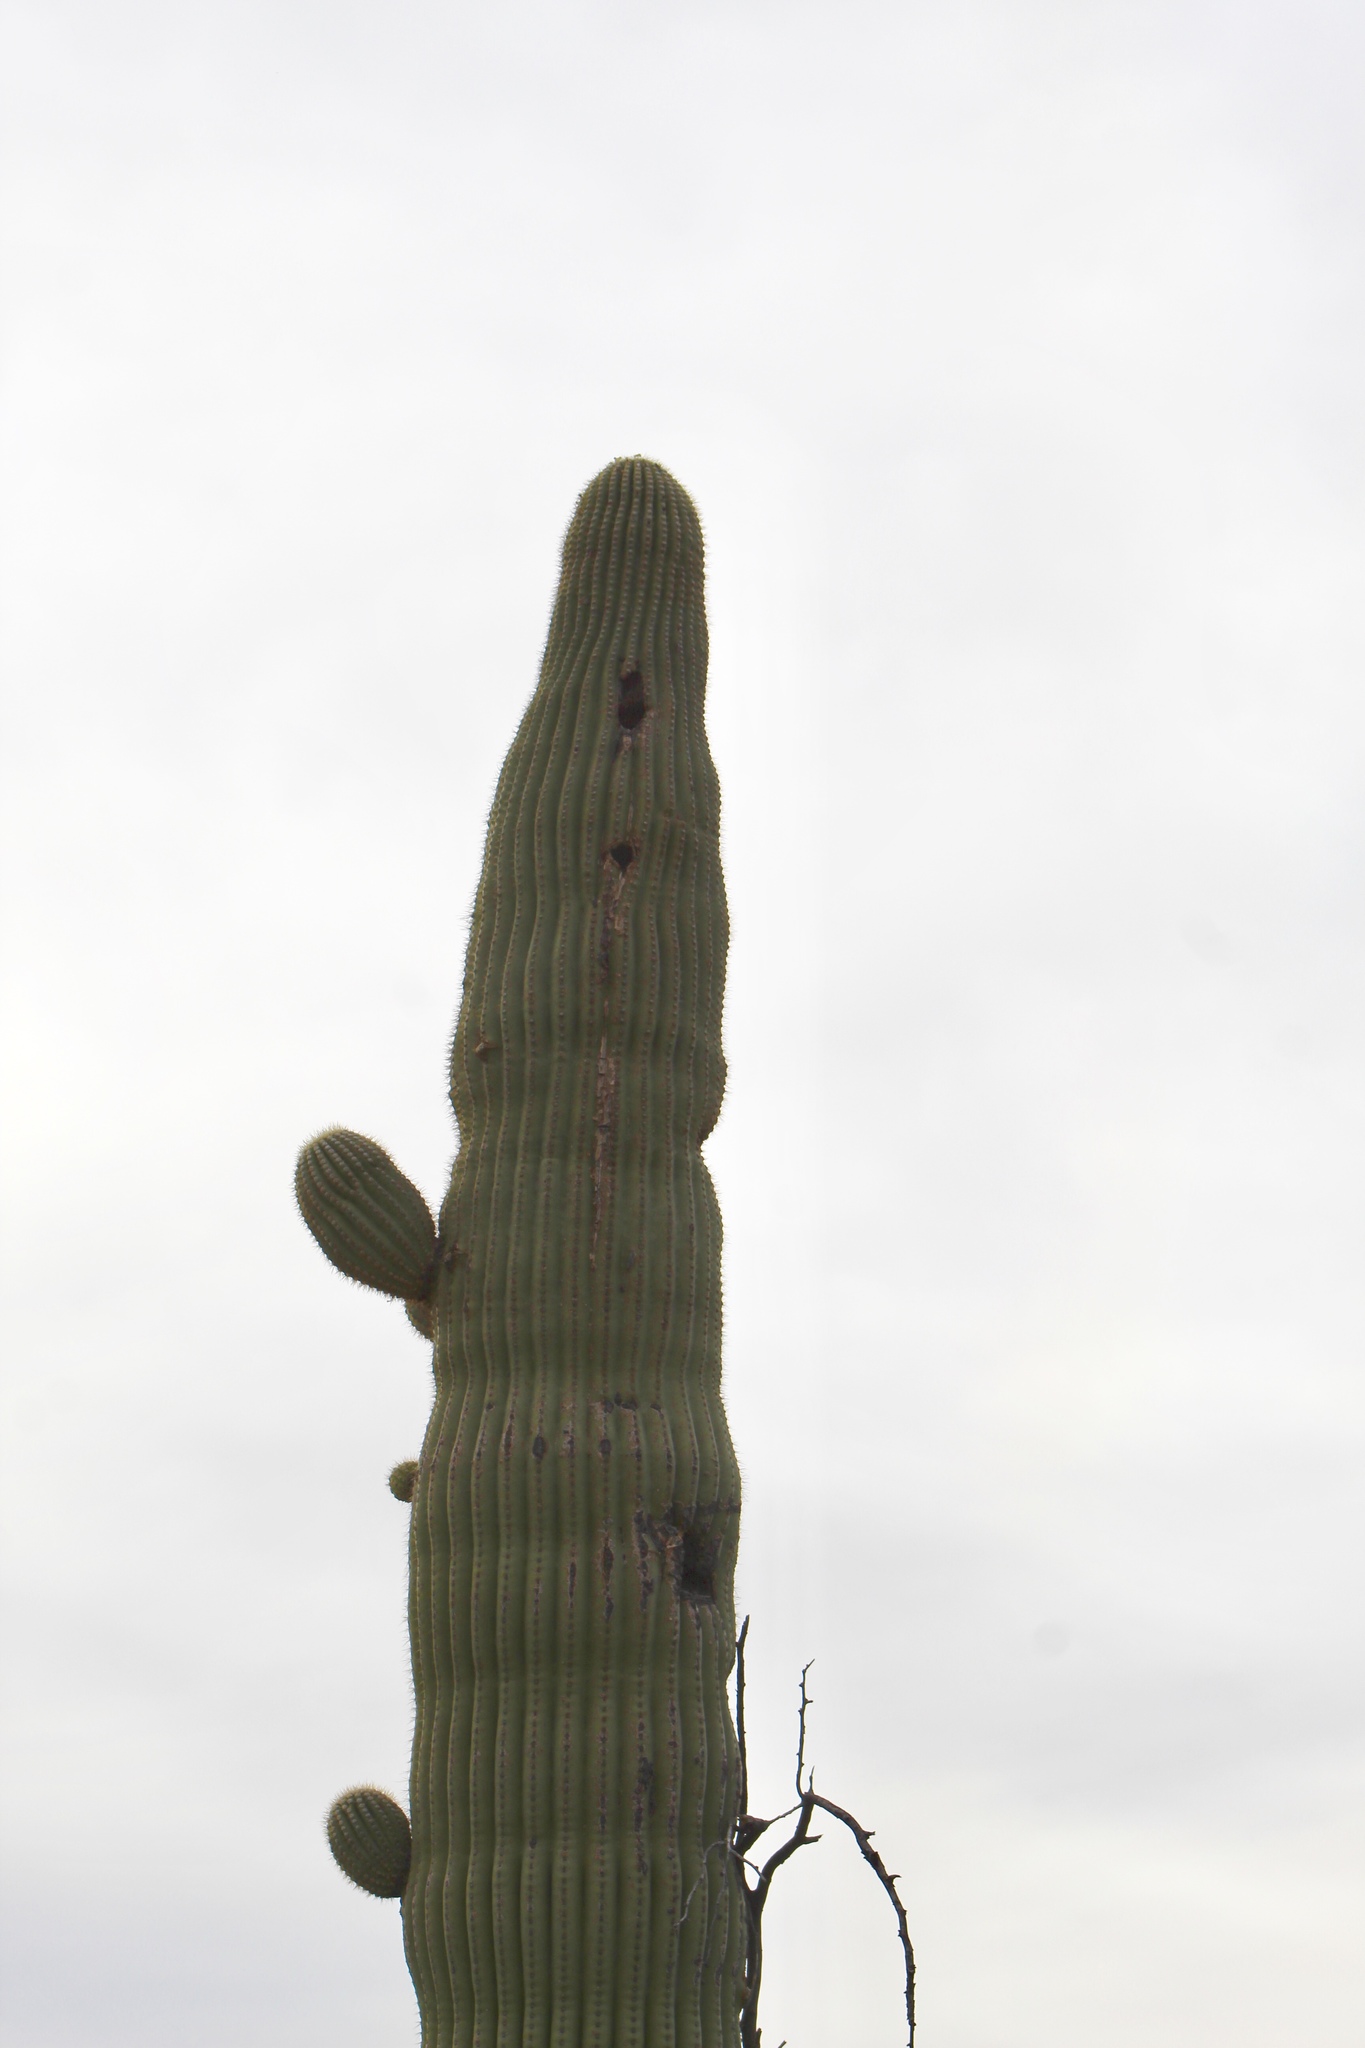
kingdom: Plantae
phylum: Tracheophyta
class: Magnoliopsida
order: Caryophyllales
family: Cactaceae
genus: Carnegiea
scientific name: Carnegiea gigantea
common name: Saguaro
